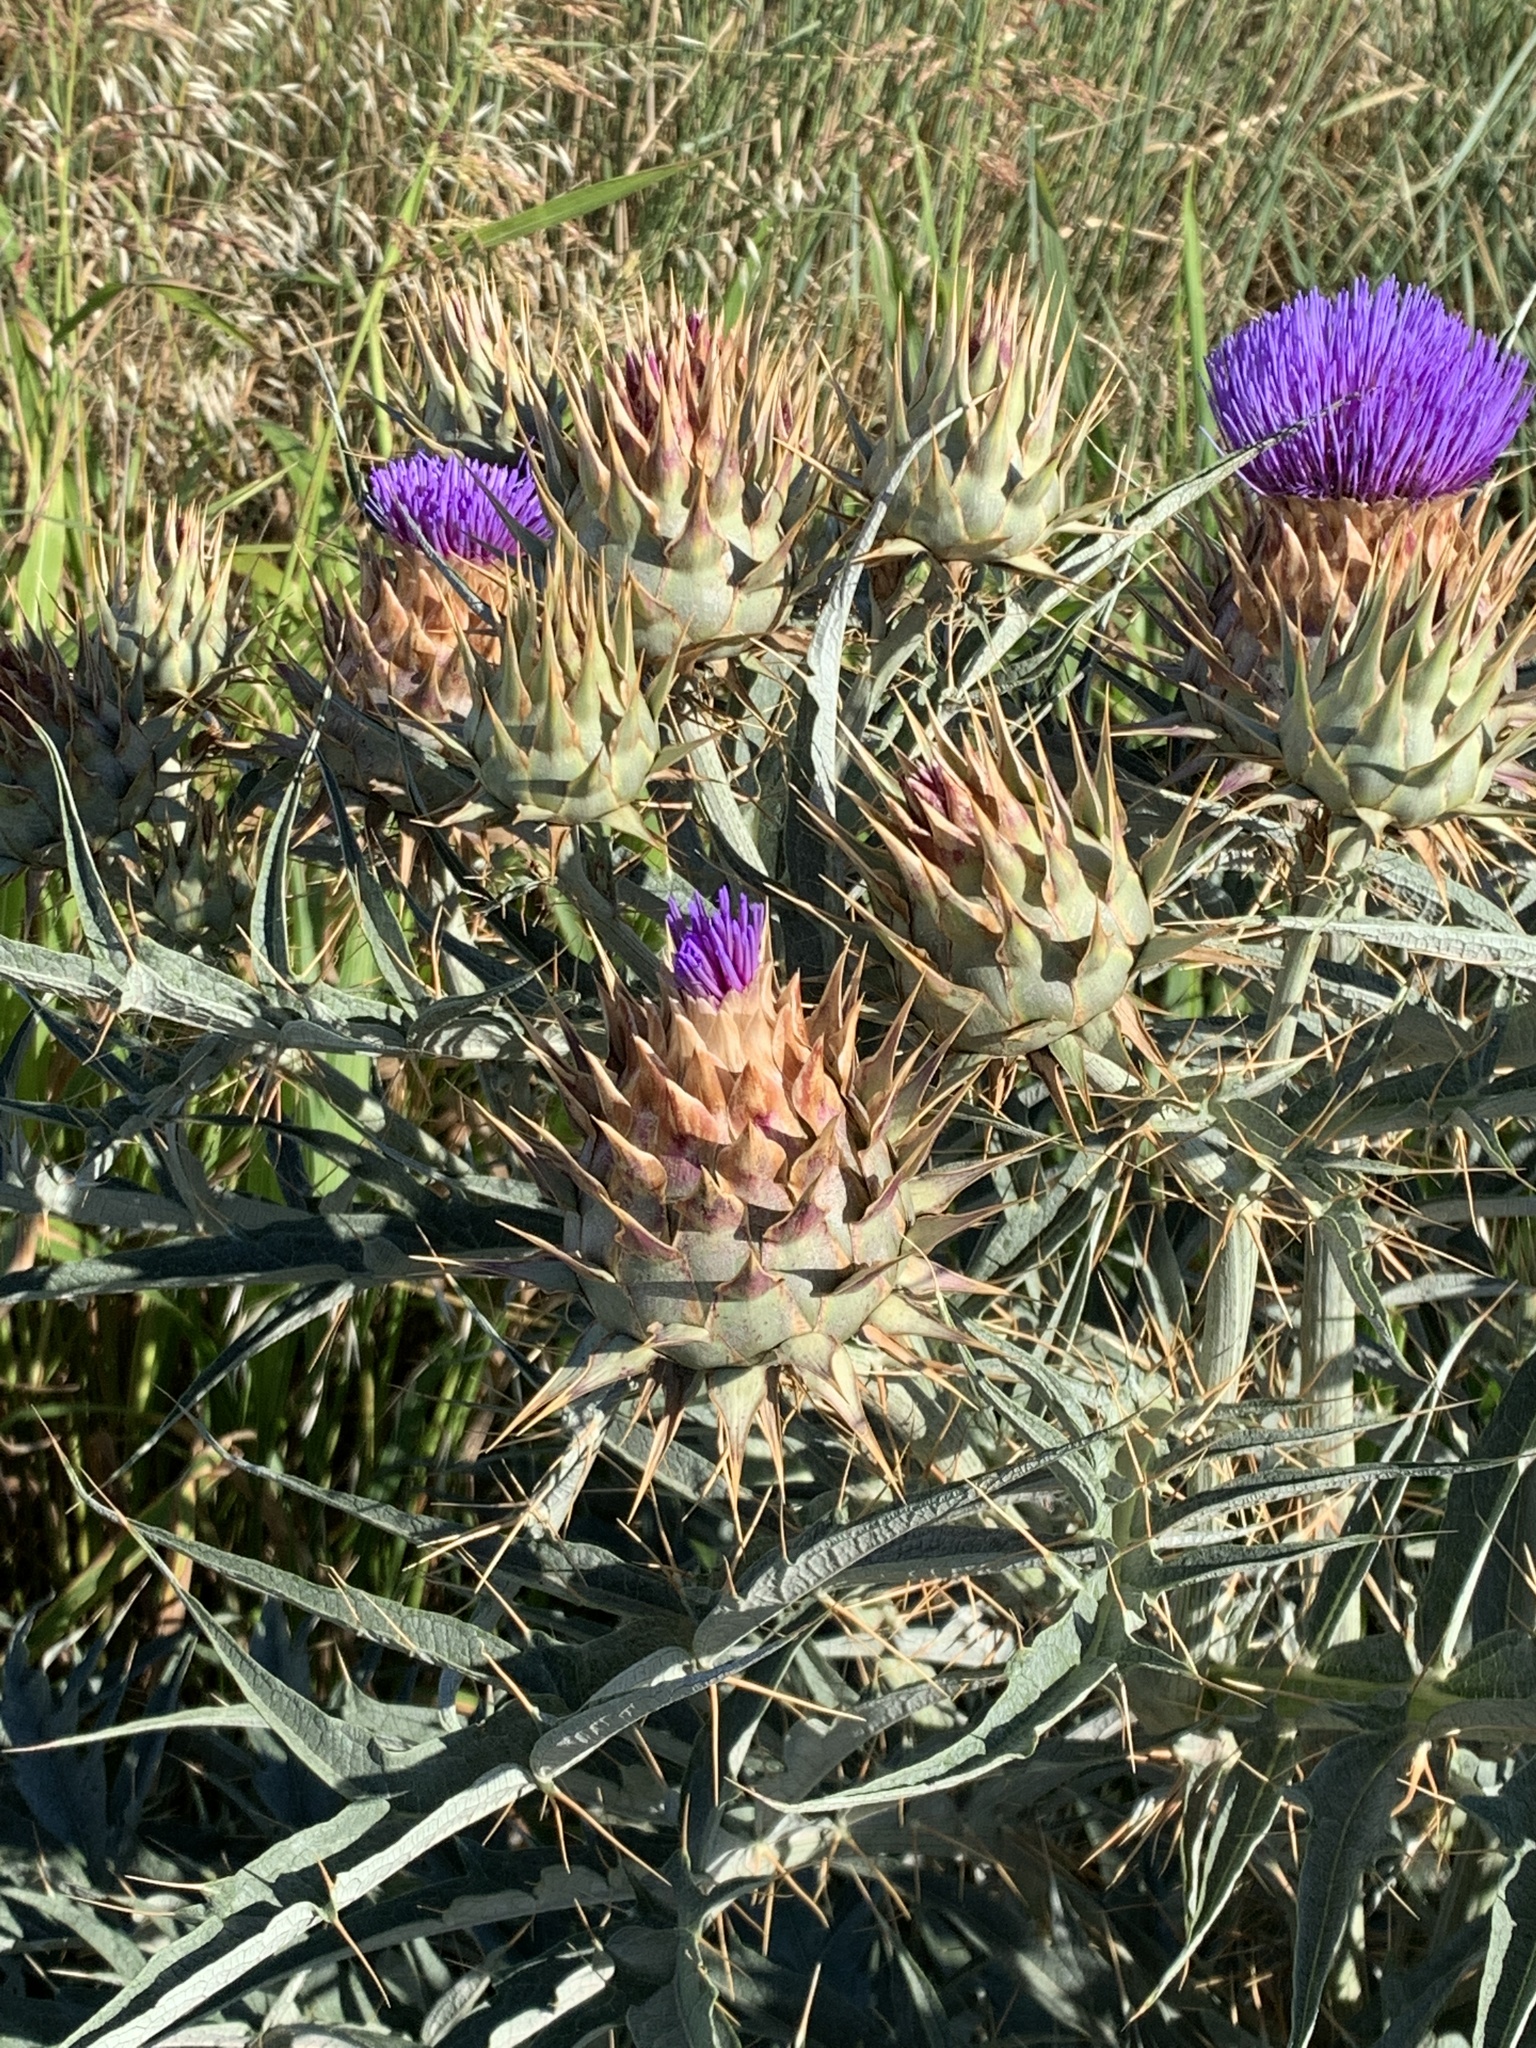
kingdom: Plantae
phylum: Tracheophyta
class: Magnoliopsida
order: Asterales
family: Asteraceae
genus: Cynara
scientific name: Cynara cardunculus
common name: Globe artichoke
